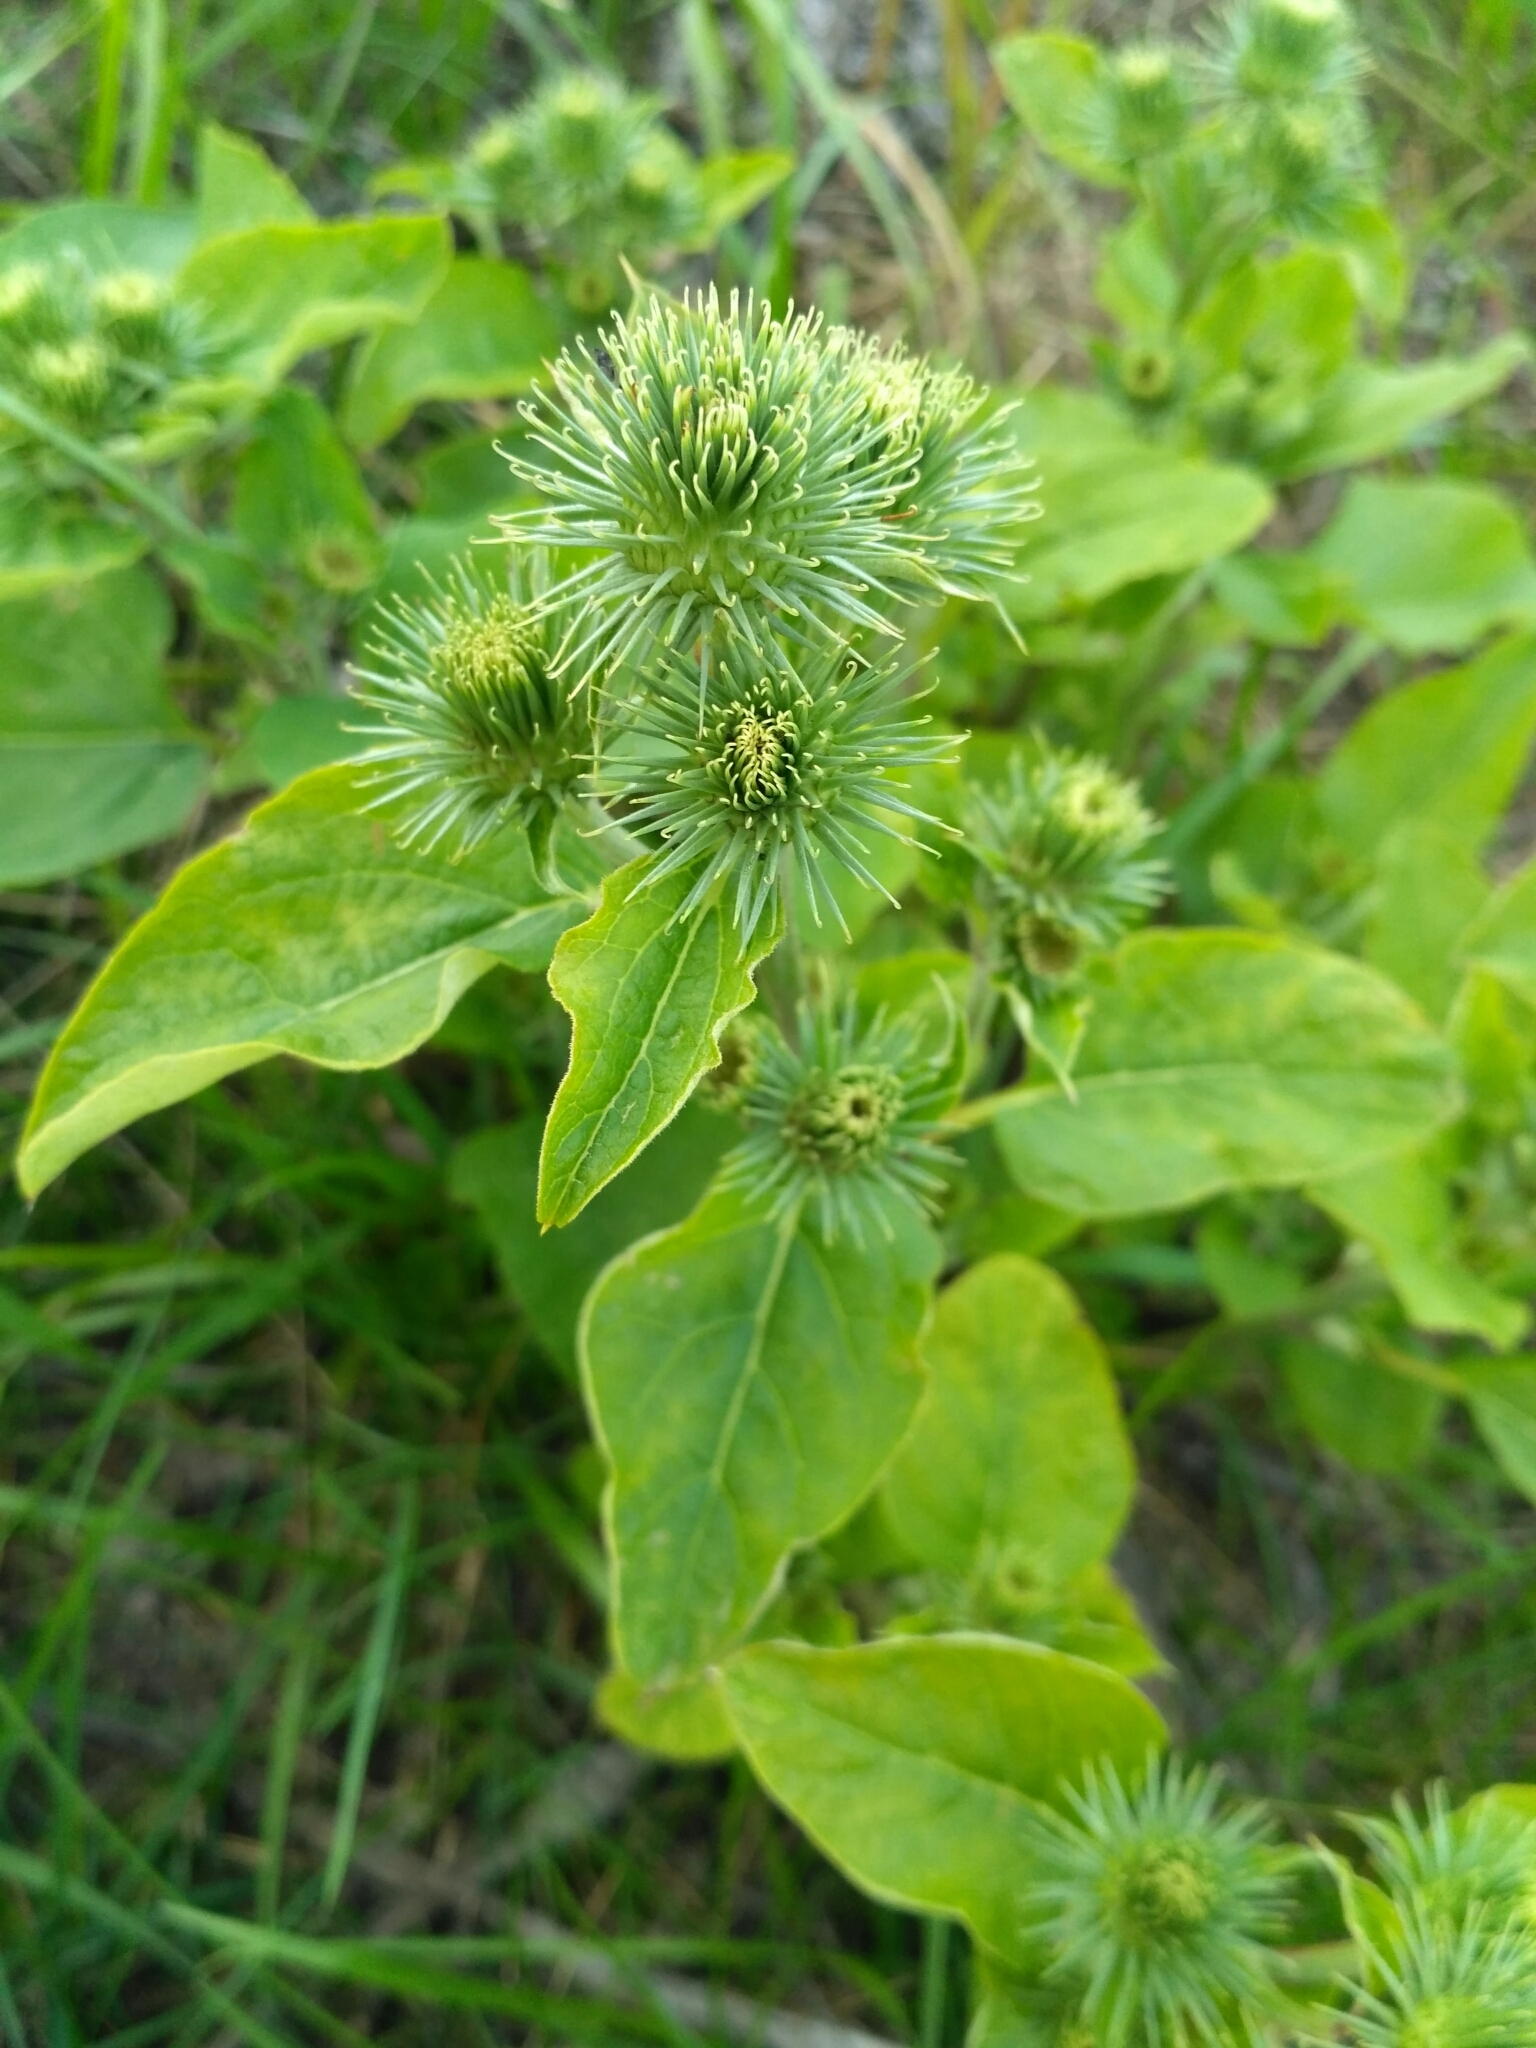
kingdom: Plantae
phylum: Tracheophyta
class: Magnoliopsida
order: Asterales
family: Asteraceae
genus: Arctium
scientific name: Arctium minus
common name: Lesser burdock
